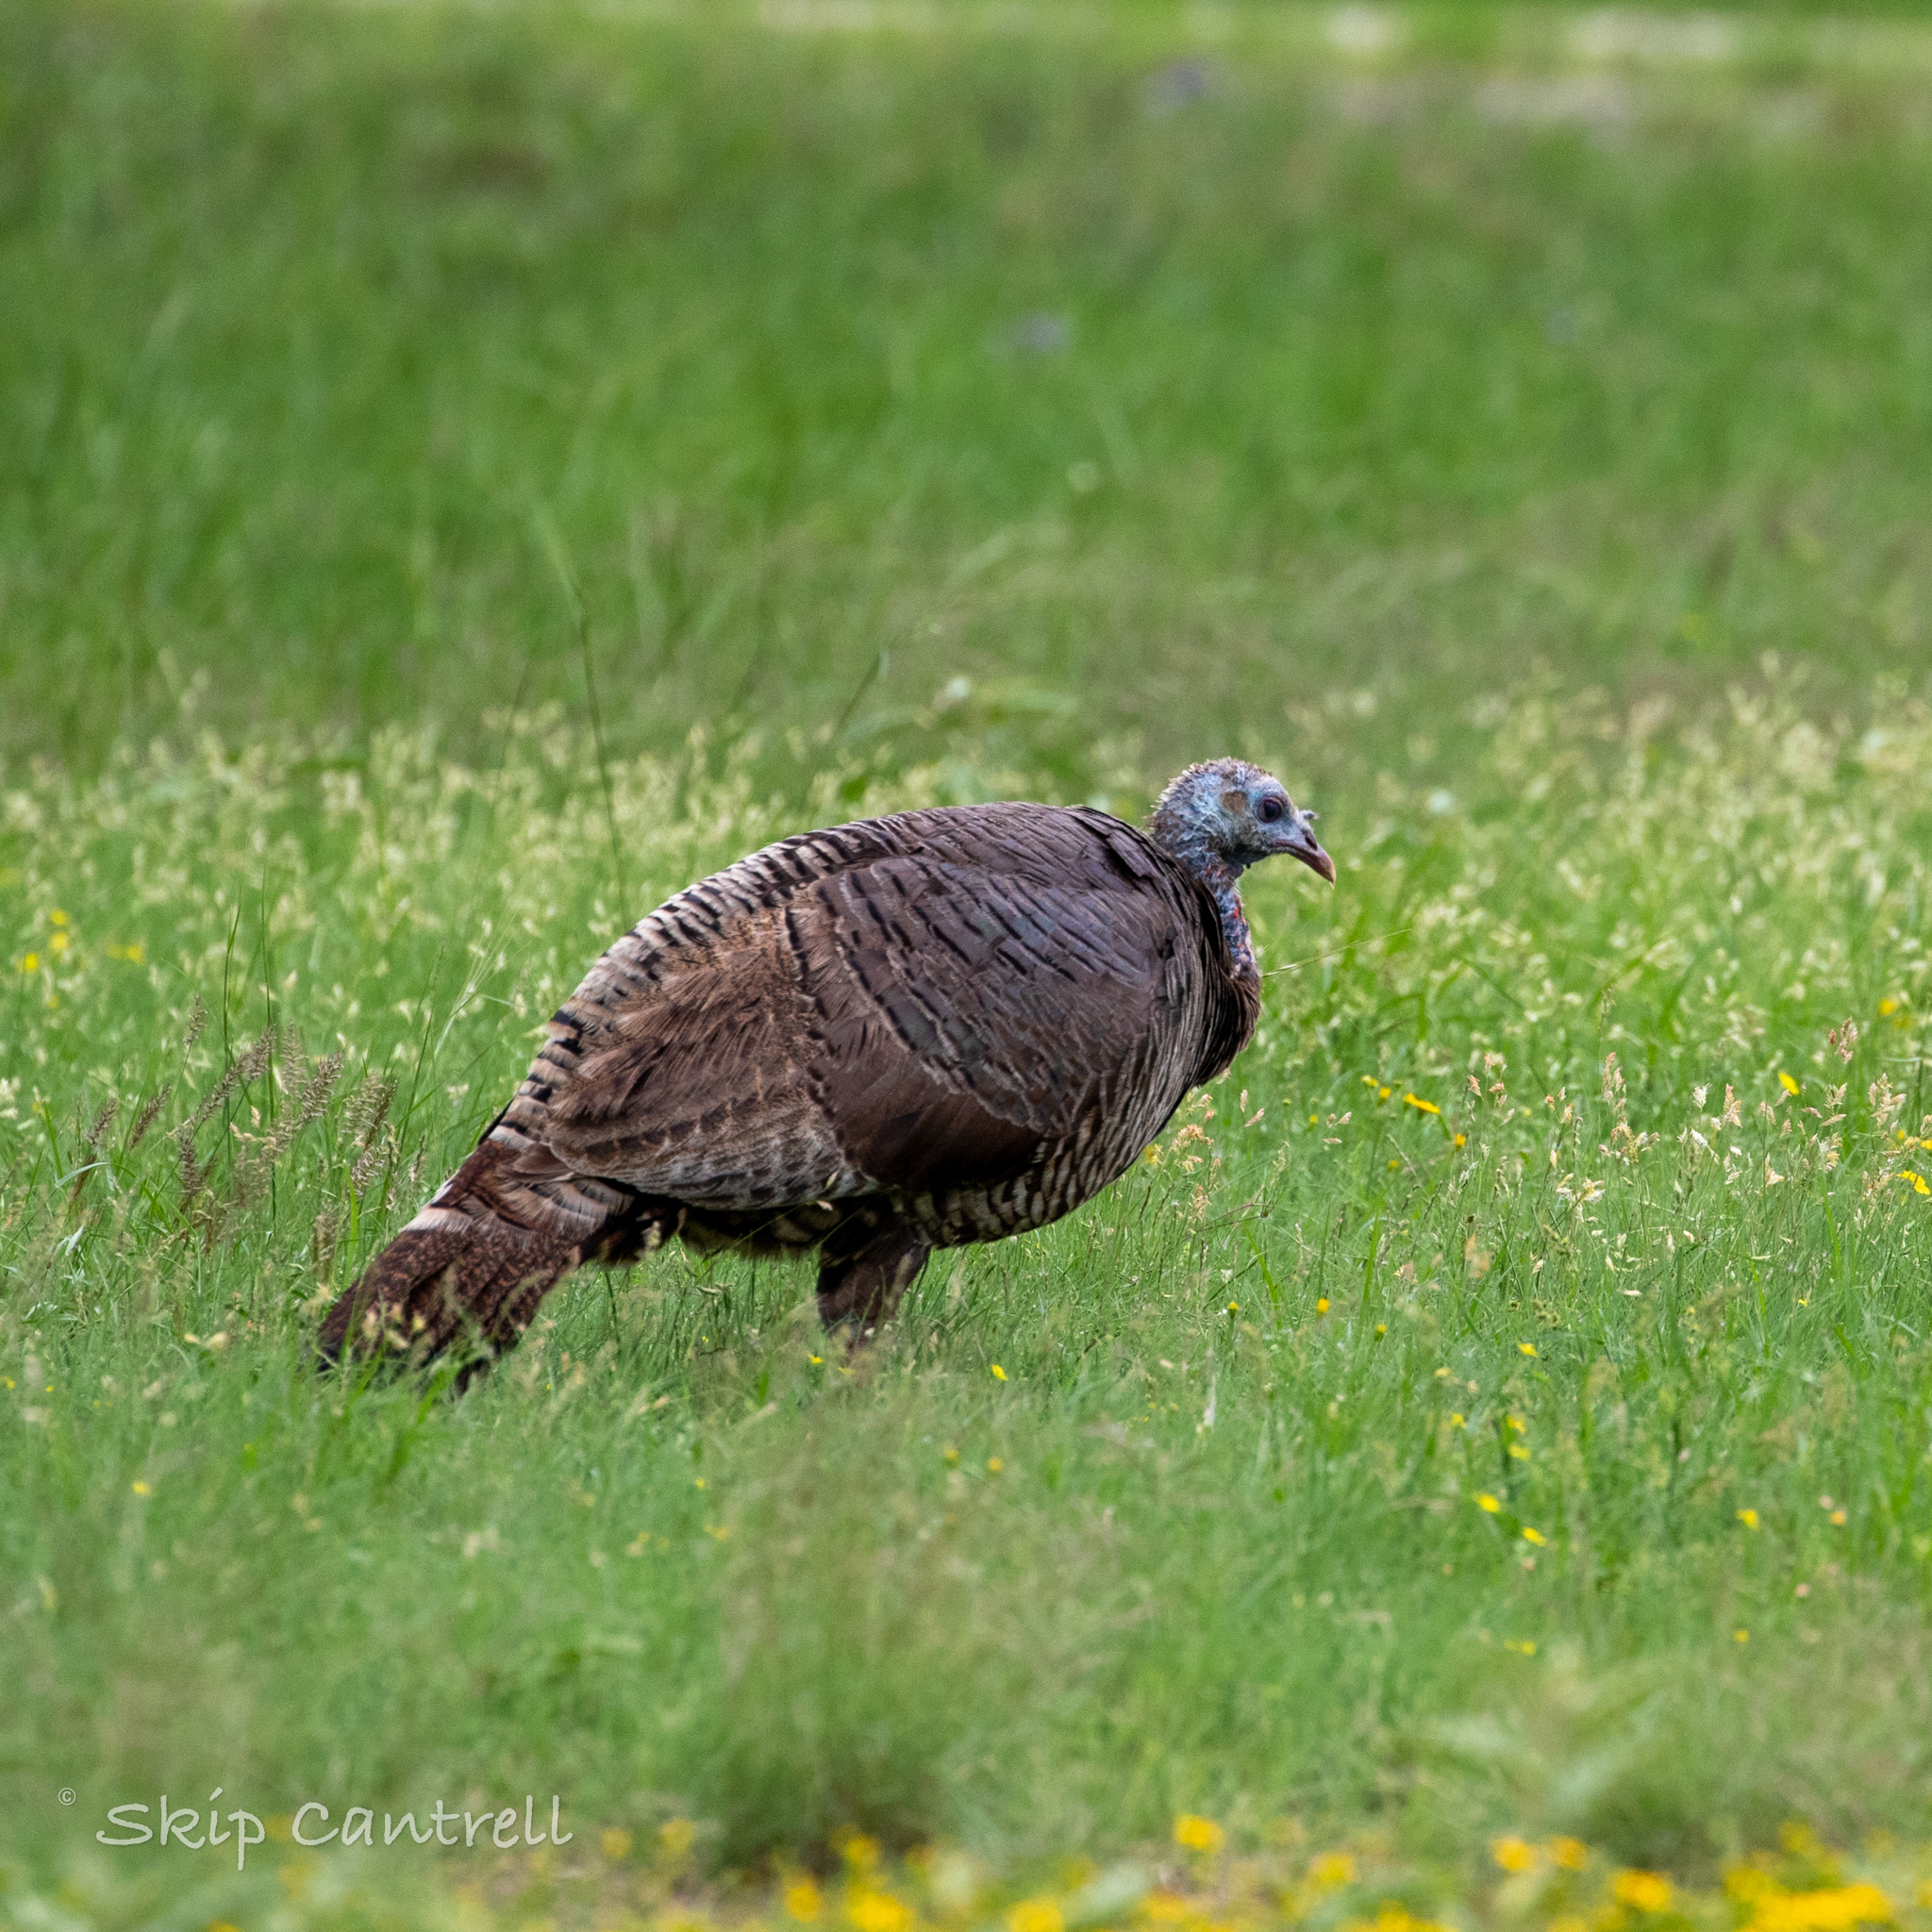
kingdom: Animalia
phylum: Chordata
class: Aves
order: Galliformes
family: Phasianidae
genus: Meleagris
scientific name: Meleagris gallopavo
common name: Wild turkey
